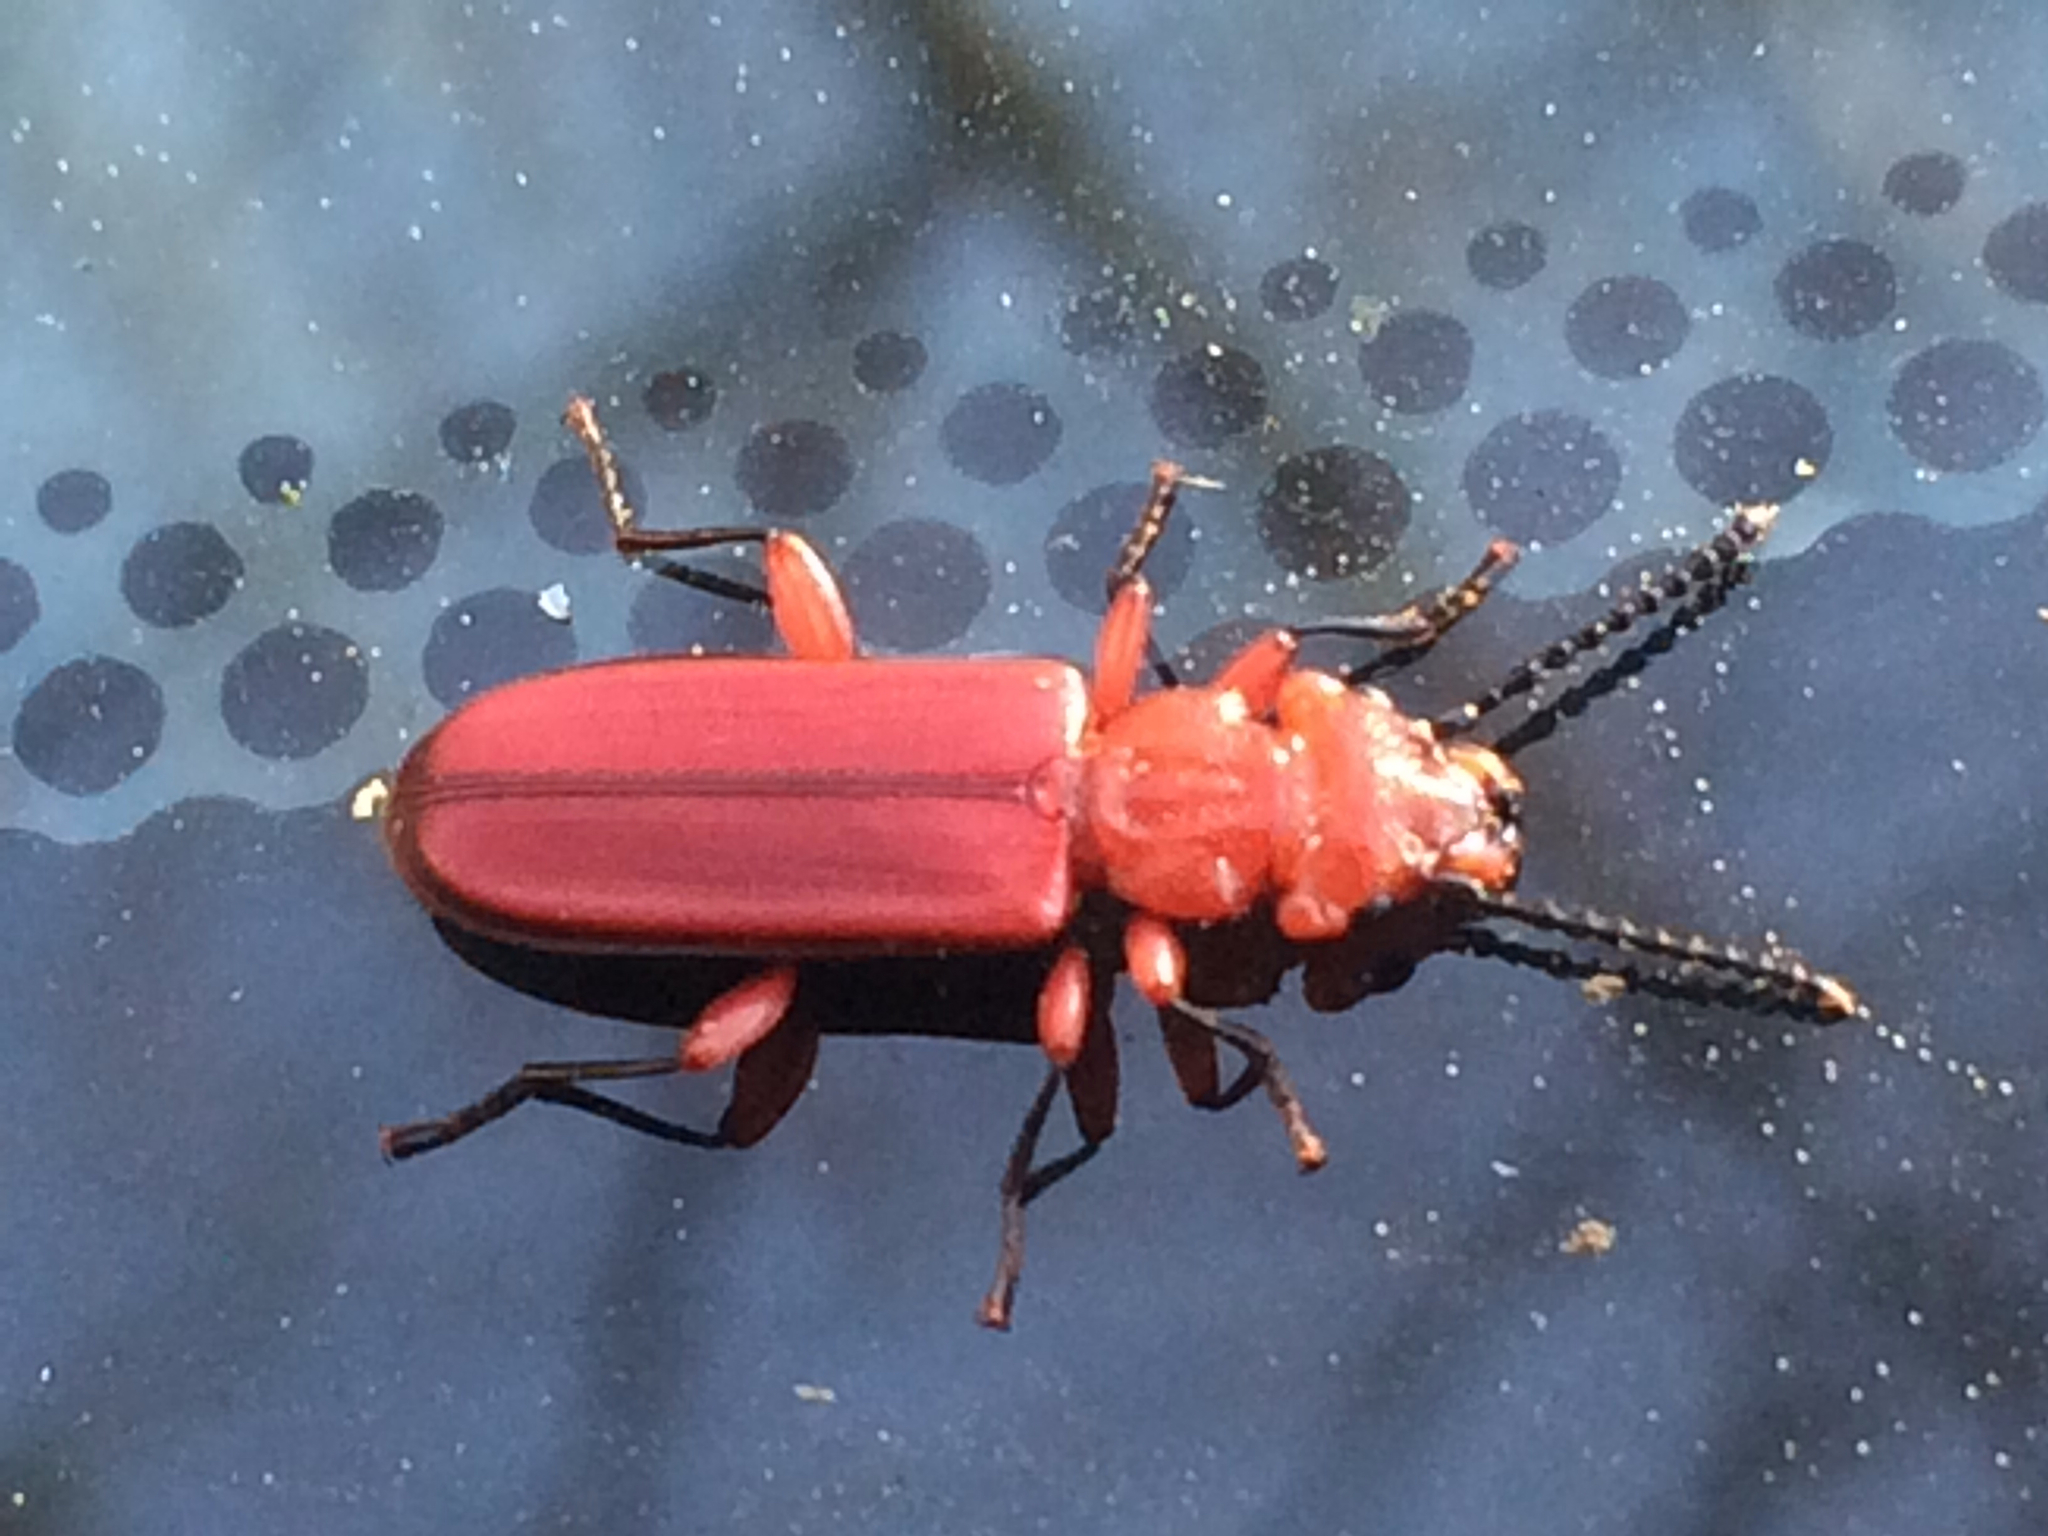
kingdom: Animalia
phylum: Arthropoda
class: Insecta
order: Coleoptera
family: Cucujidae
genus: Cucujus
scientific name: Cucujus clavipes
